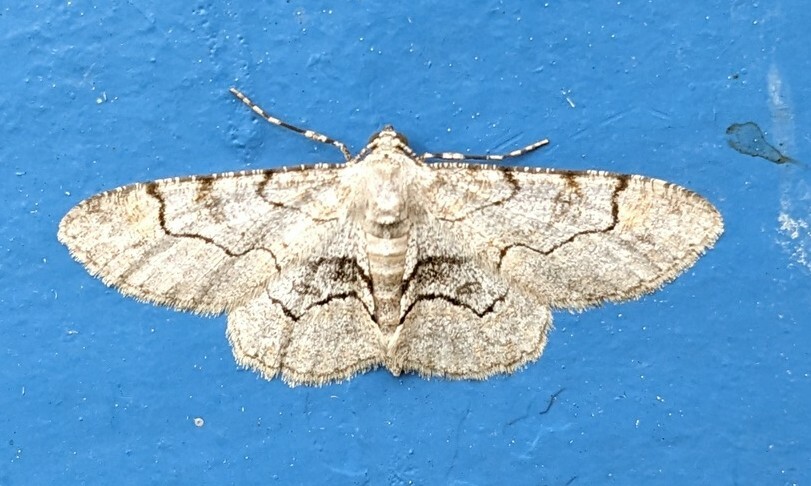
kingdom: Animalia
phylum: Arthropoda
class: Insecta
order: Lepidoptera
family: Geometridae
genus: Iridopsis
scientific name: Iridopsis larvaria
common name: Bent-line gray
